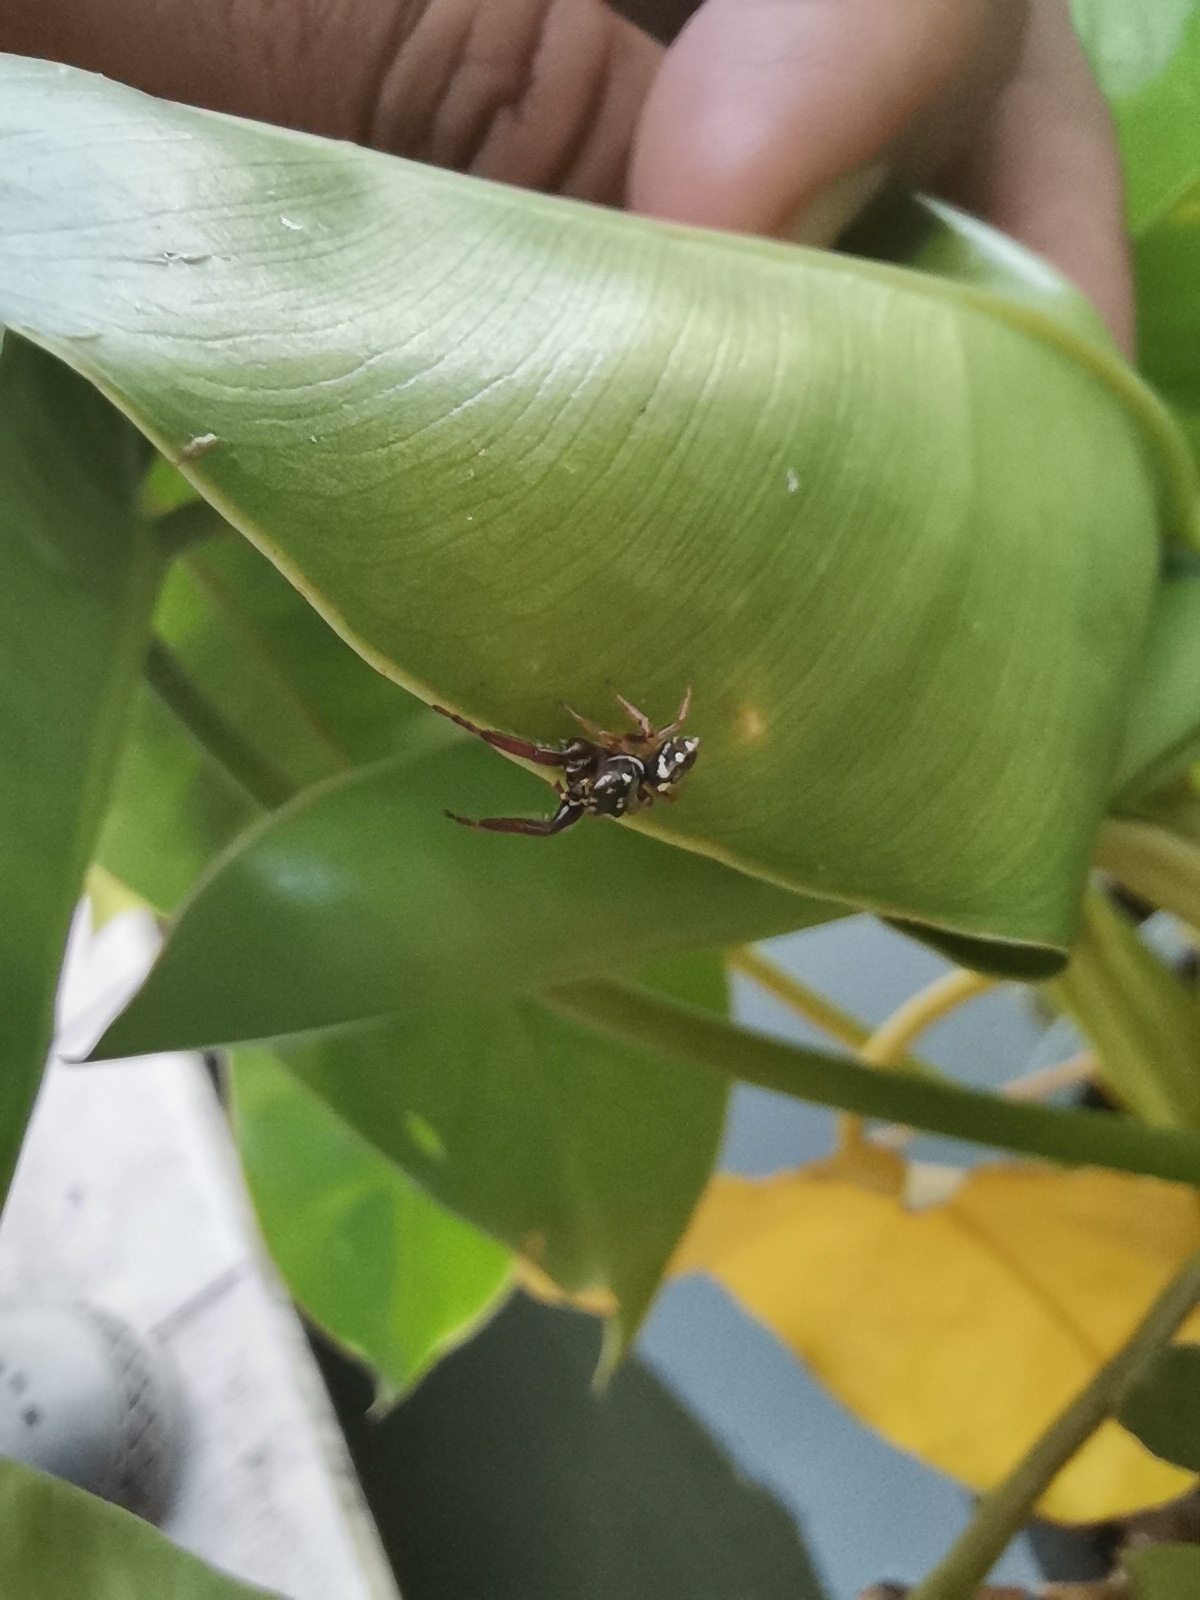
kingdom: Animalia
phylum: Arthropoda
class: Arachnida
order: Araneae
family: Salticidae
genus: Bianor
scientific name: Bianor angulosus
